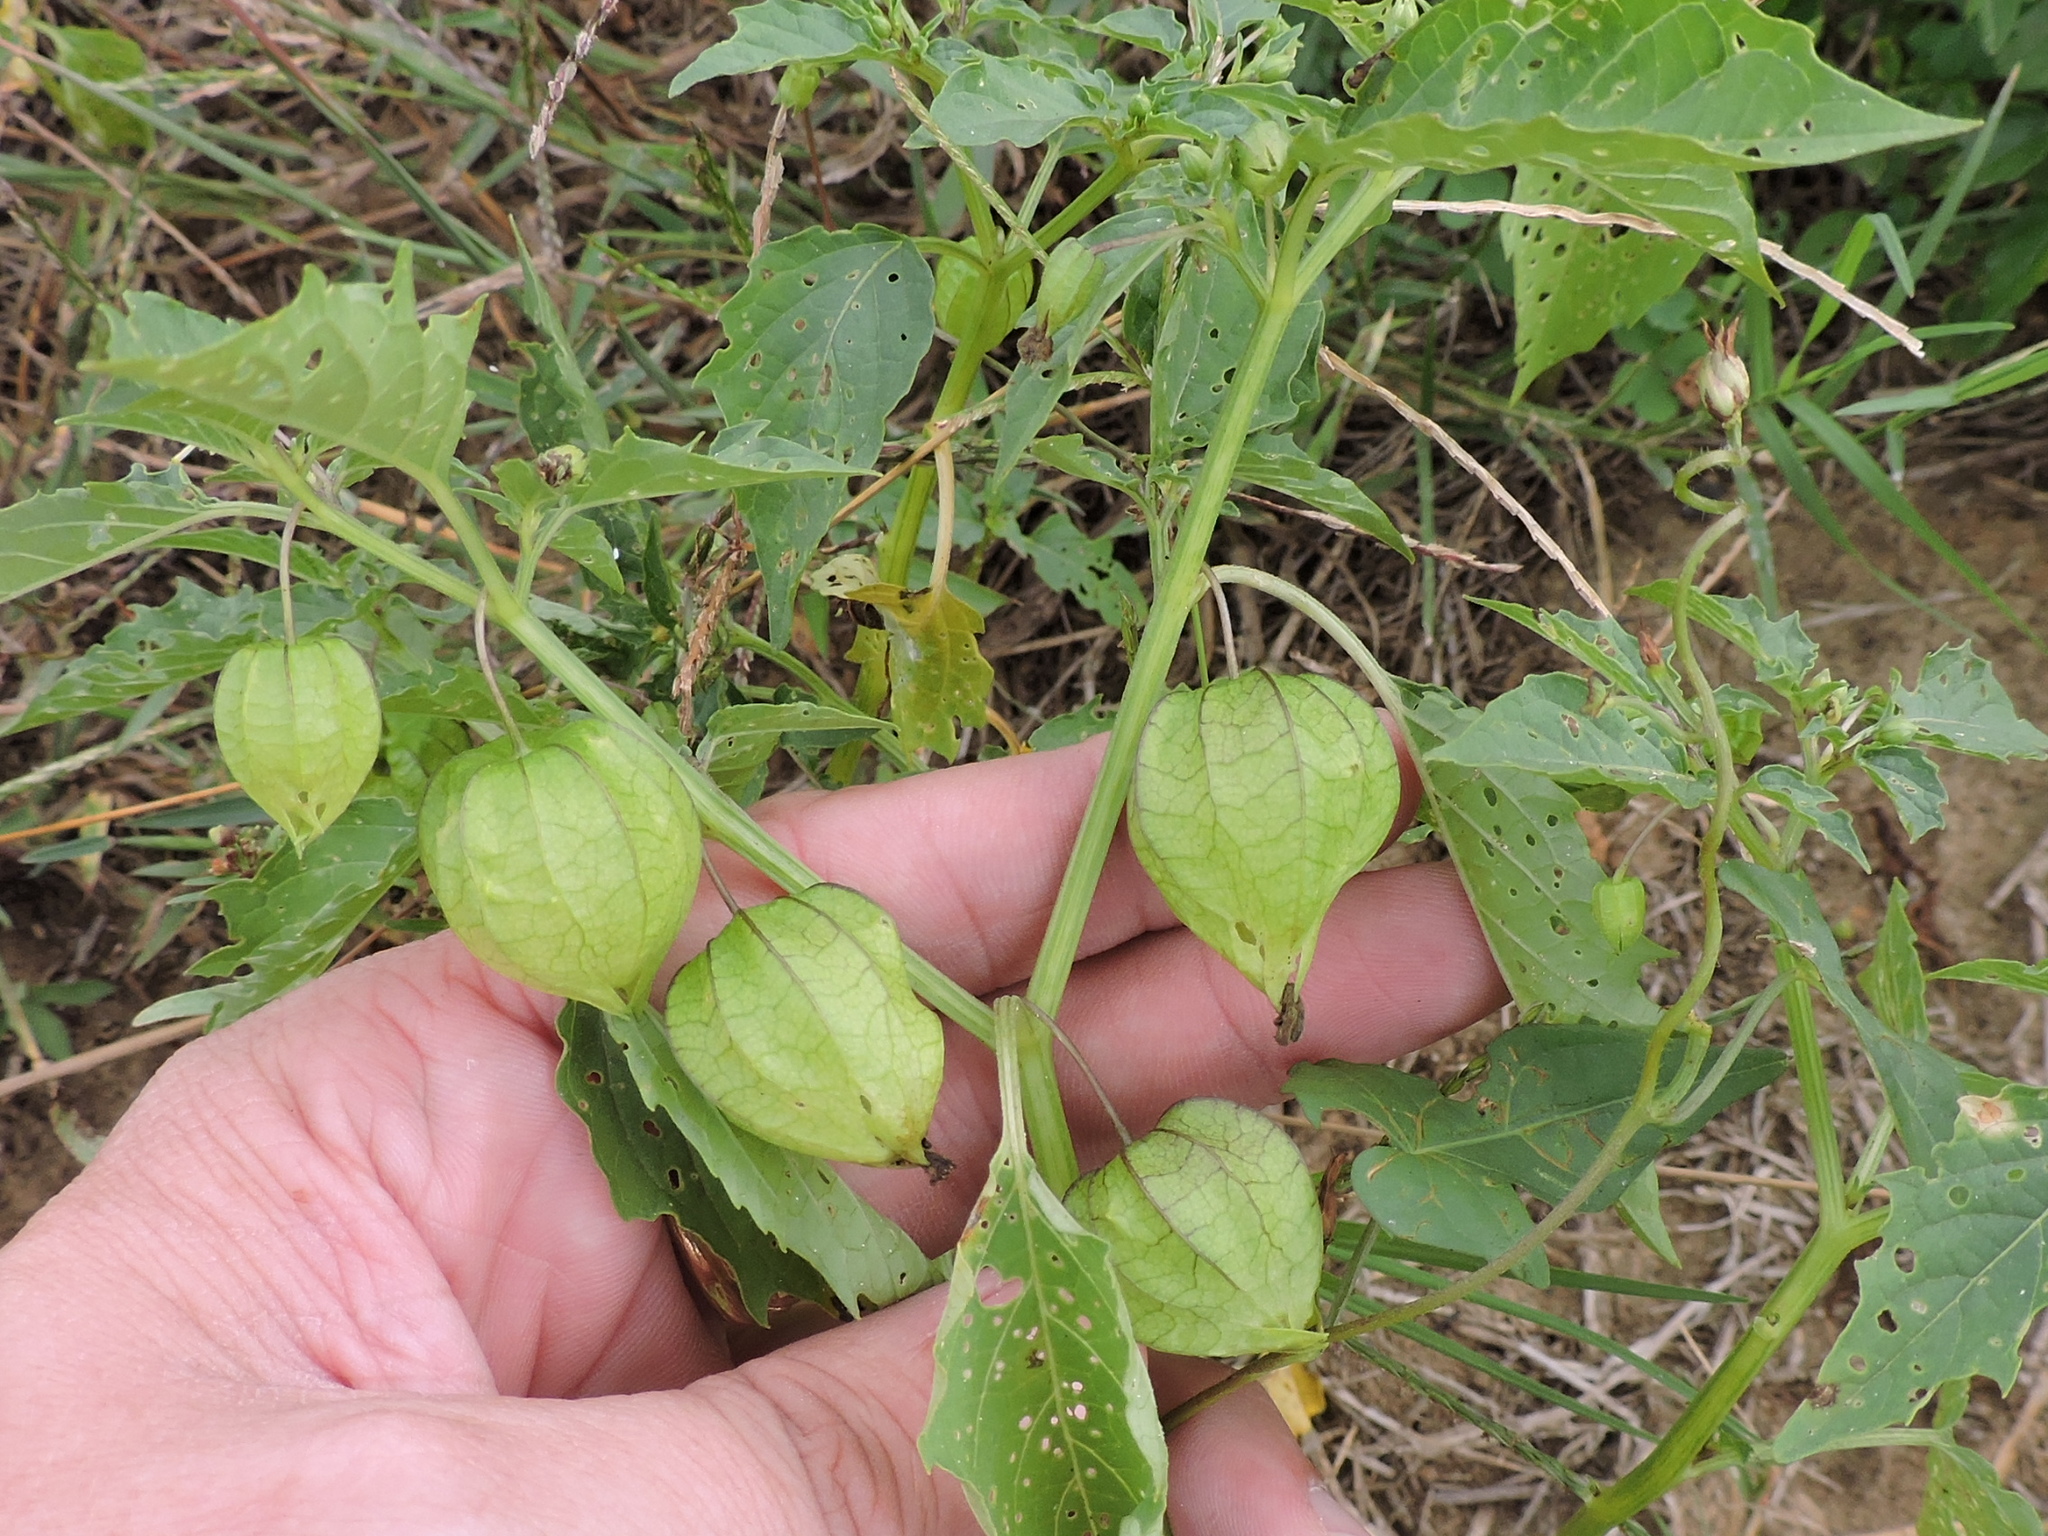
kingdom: Plantae
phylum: Tracheophyta
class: Magnoliopsida
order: Solanales
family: Solanaceae
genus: Physalis
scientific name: Physalis angulata
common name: Angular winter-cherry
